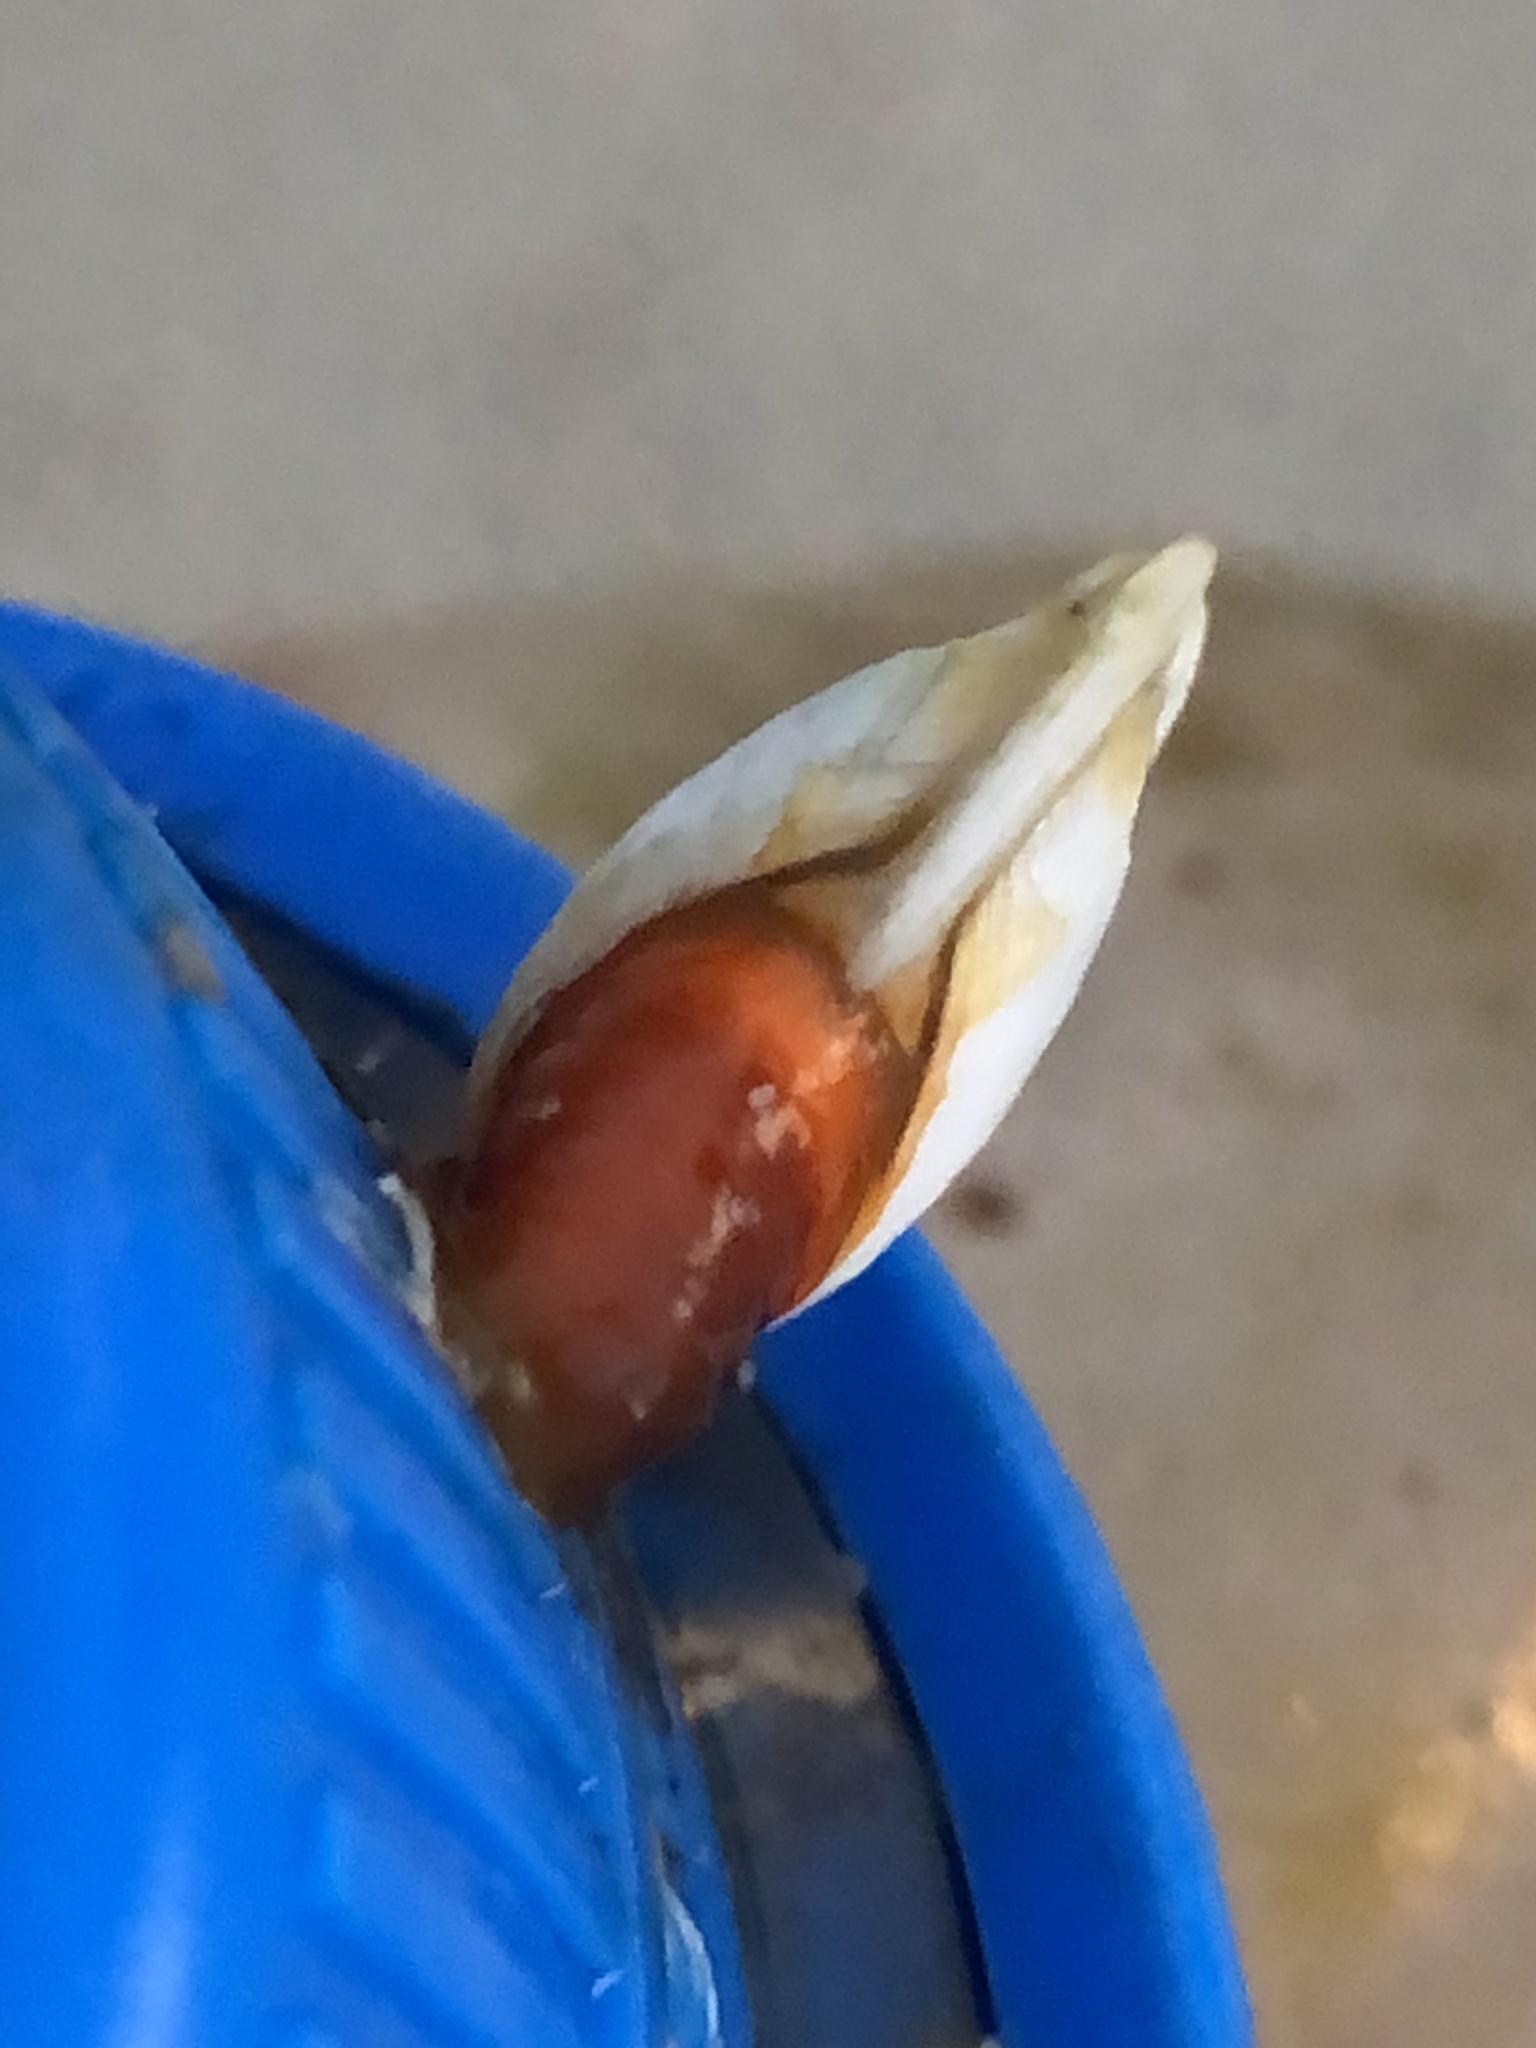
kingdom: Animalia
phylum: Arthropoda
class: Maxillopoda
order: Pedunculata
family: Lepadidae
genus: Lepas
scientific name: Lepas anserifera
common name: Goose barnacle
